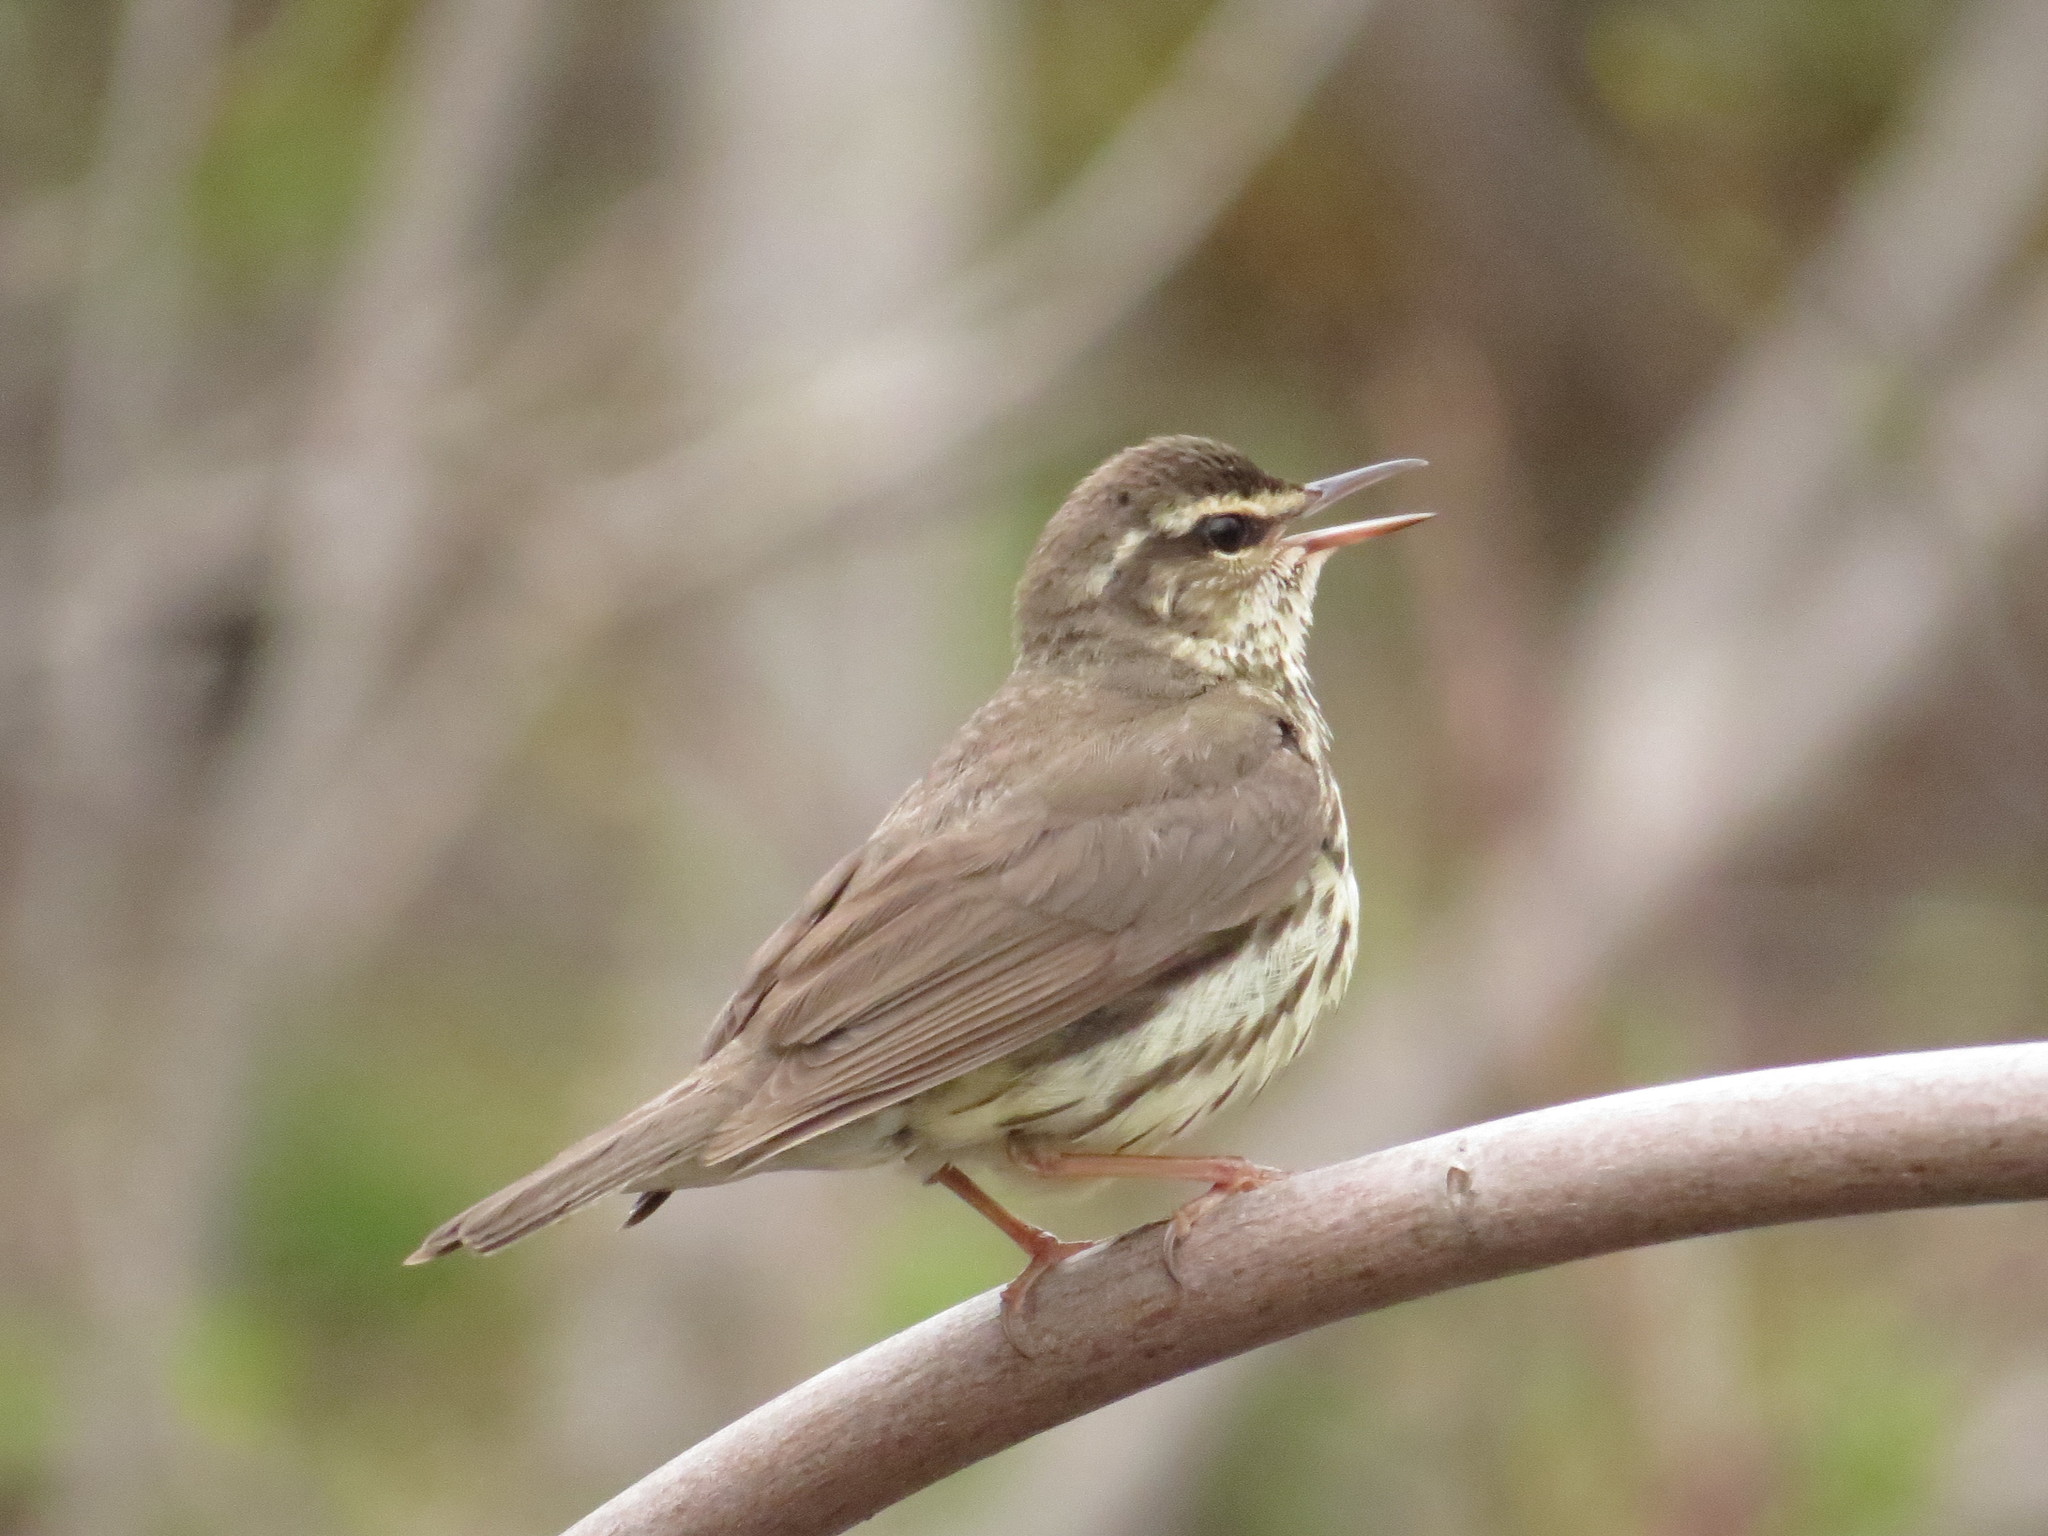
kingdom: Animalia
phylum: Chordata
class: Aves
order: Passeriformes
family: Parulidae
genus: Parkesia
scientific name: Parkesia noveboracensis
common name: Northern waterthrush
